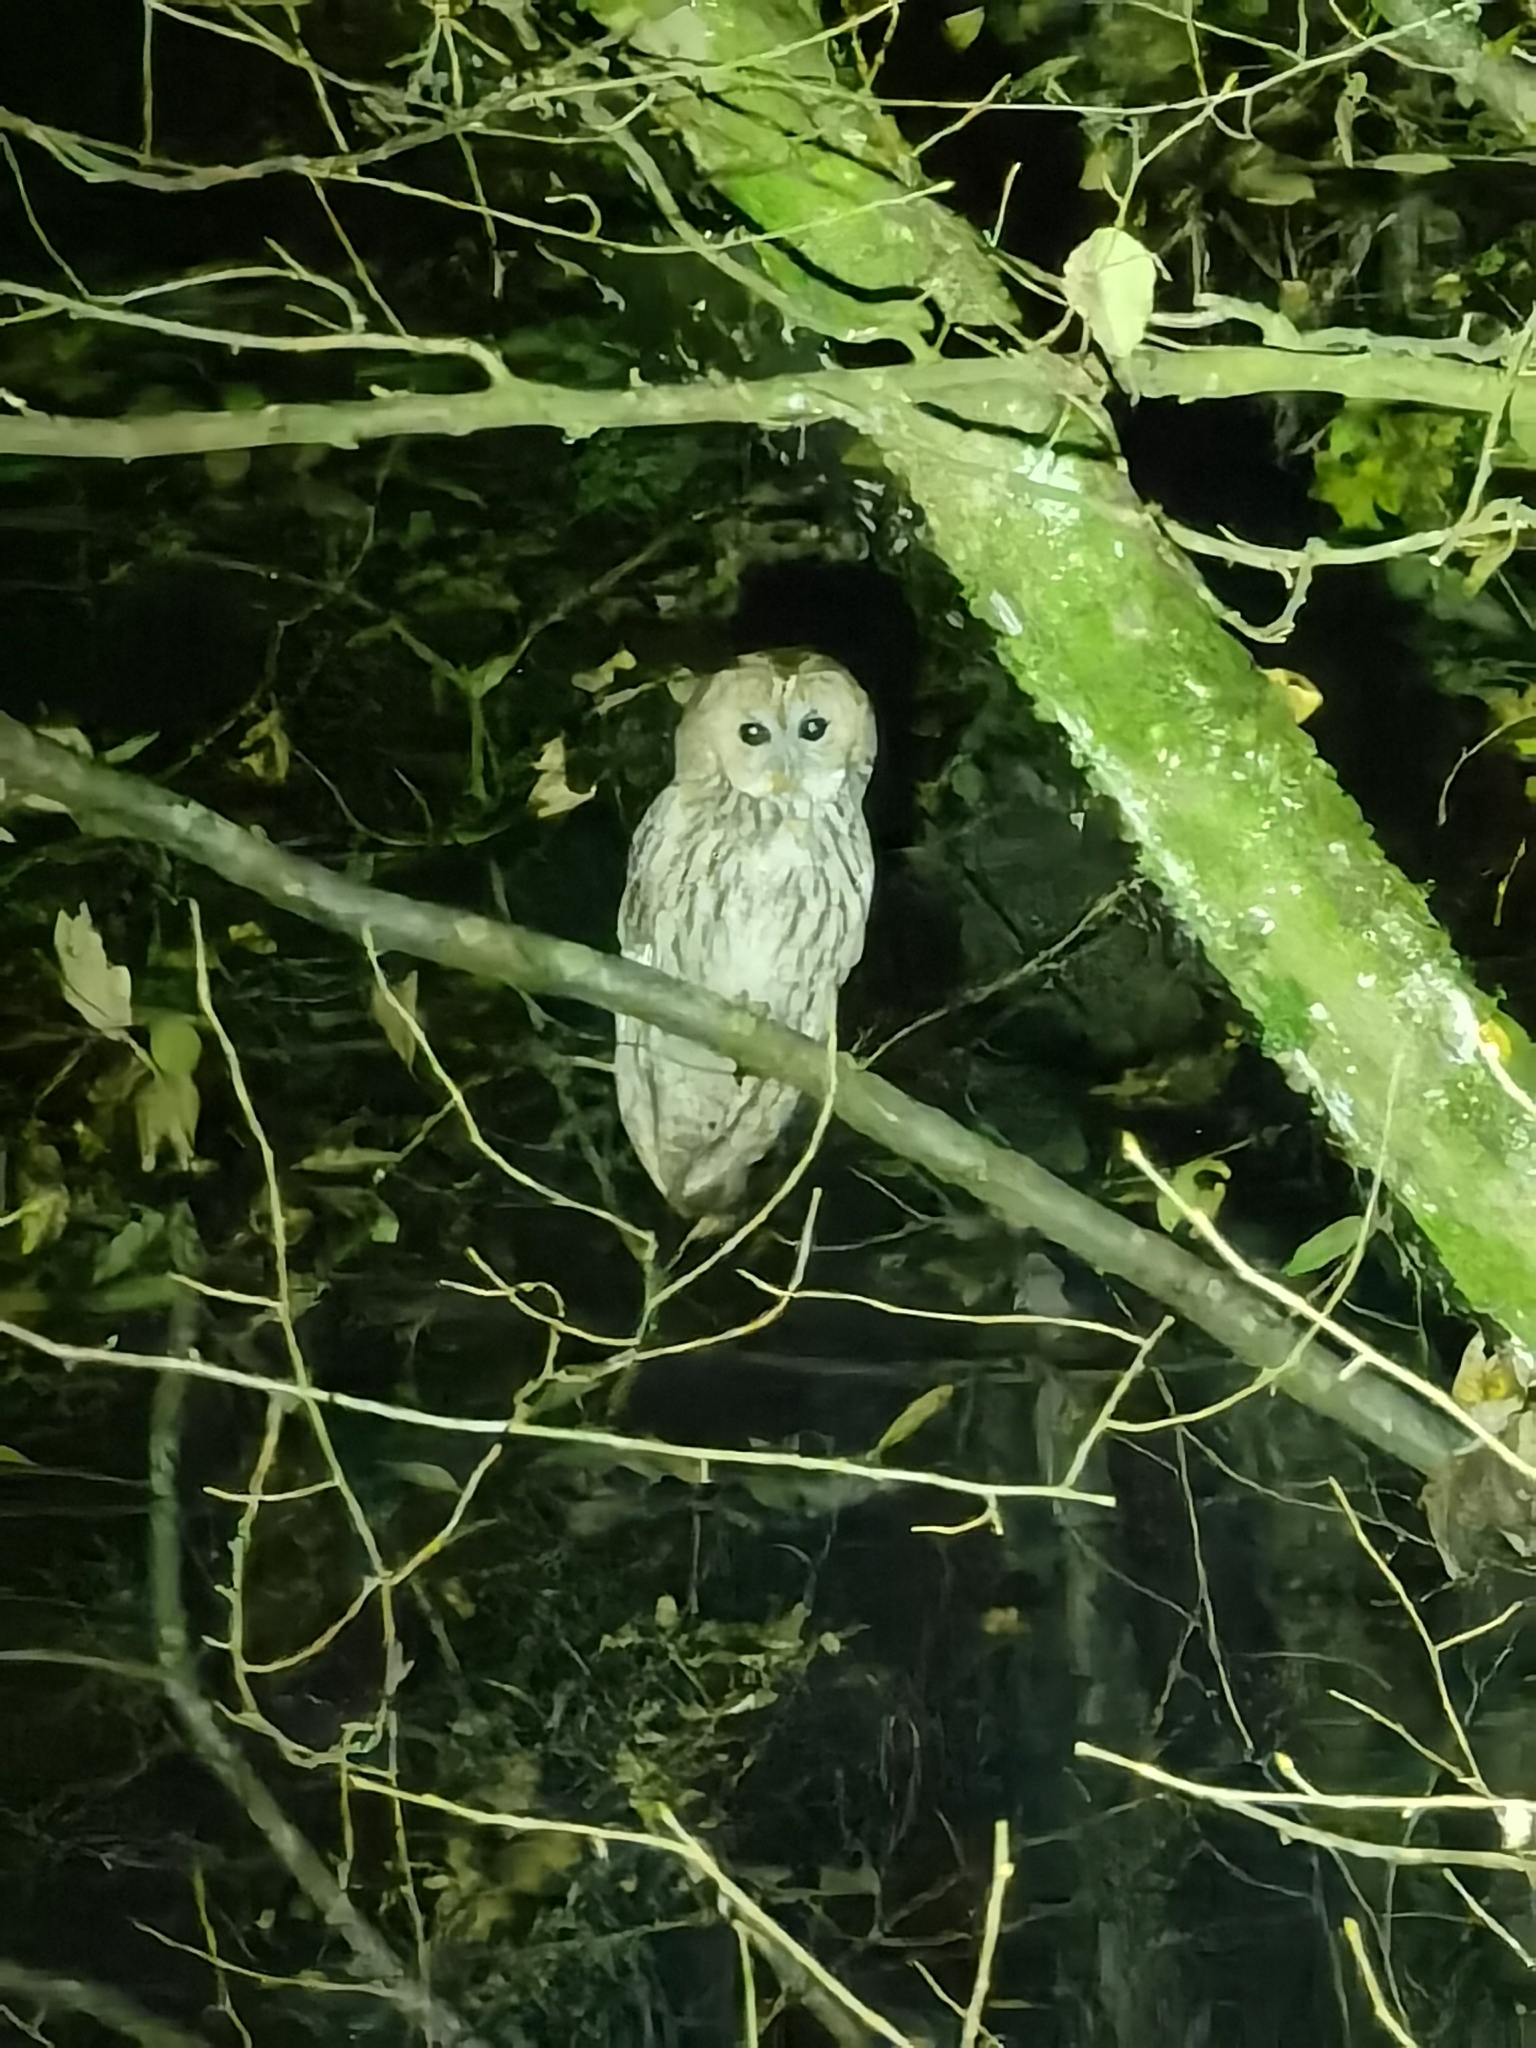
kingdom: Animalia
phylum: Chordata
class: Aves
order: Strigiformes
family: Strigidae
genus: Strix
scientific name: Strix aluco
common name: Tawny owl
